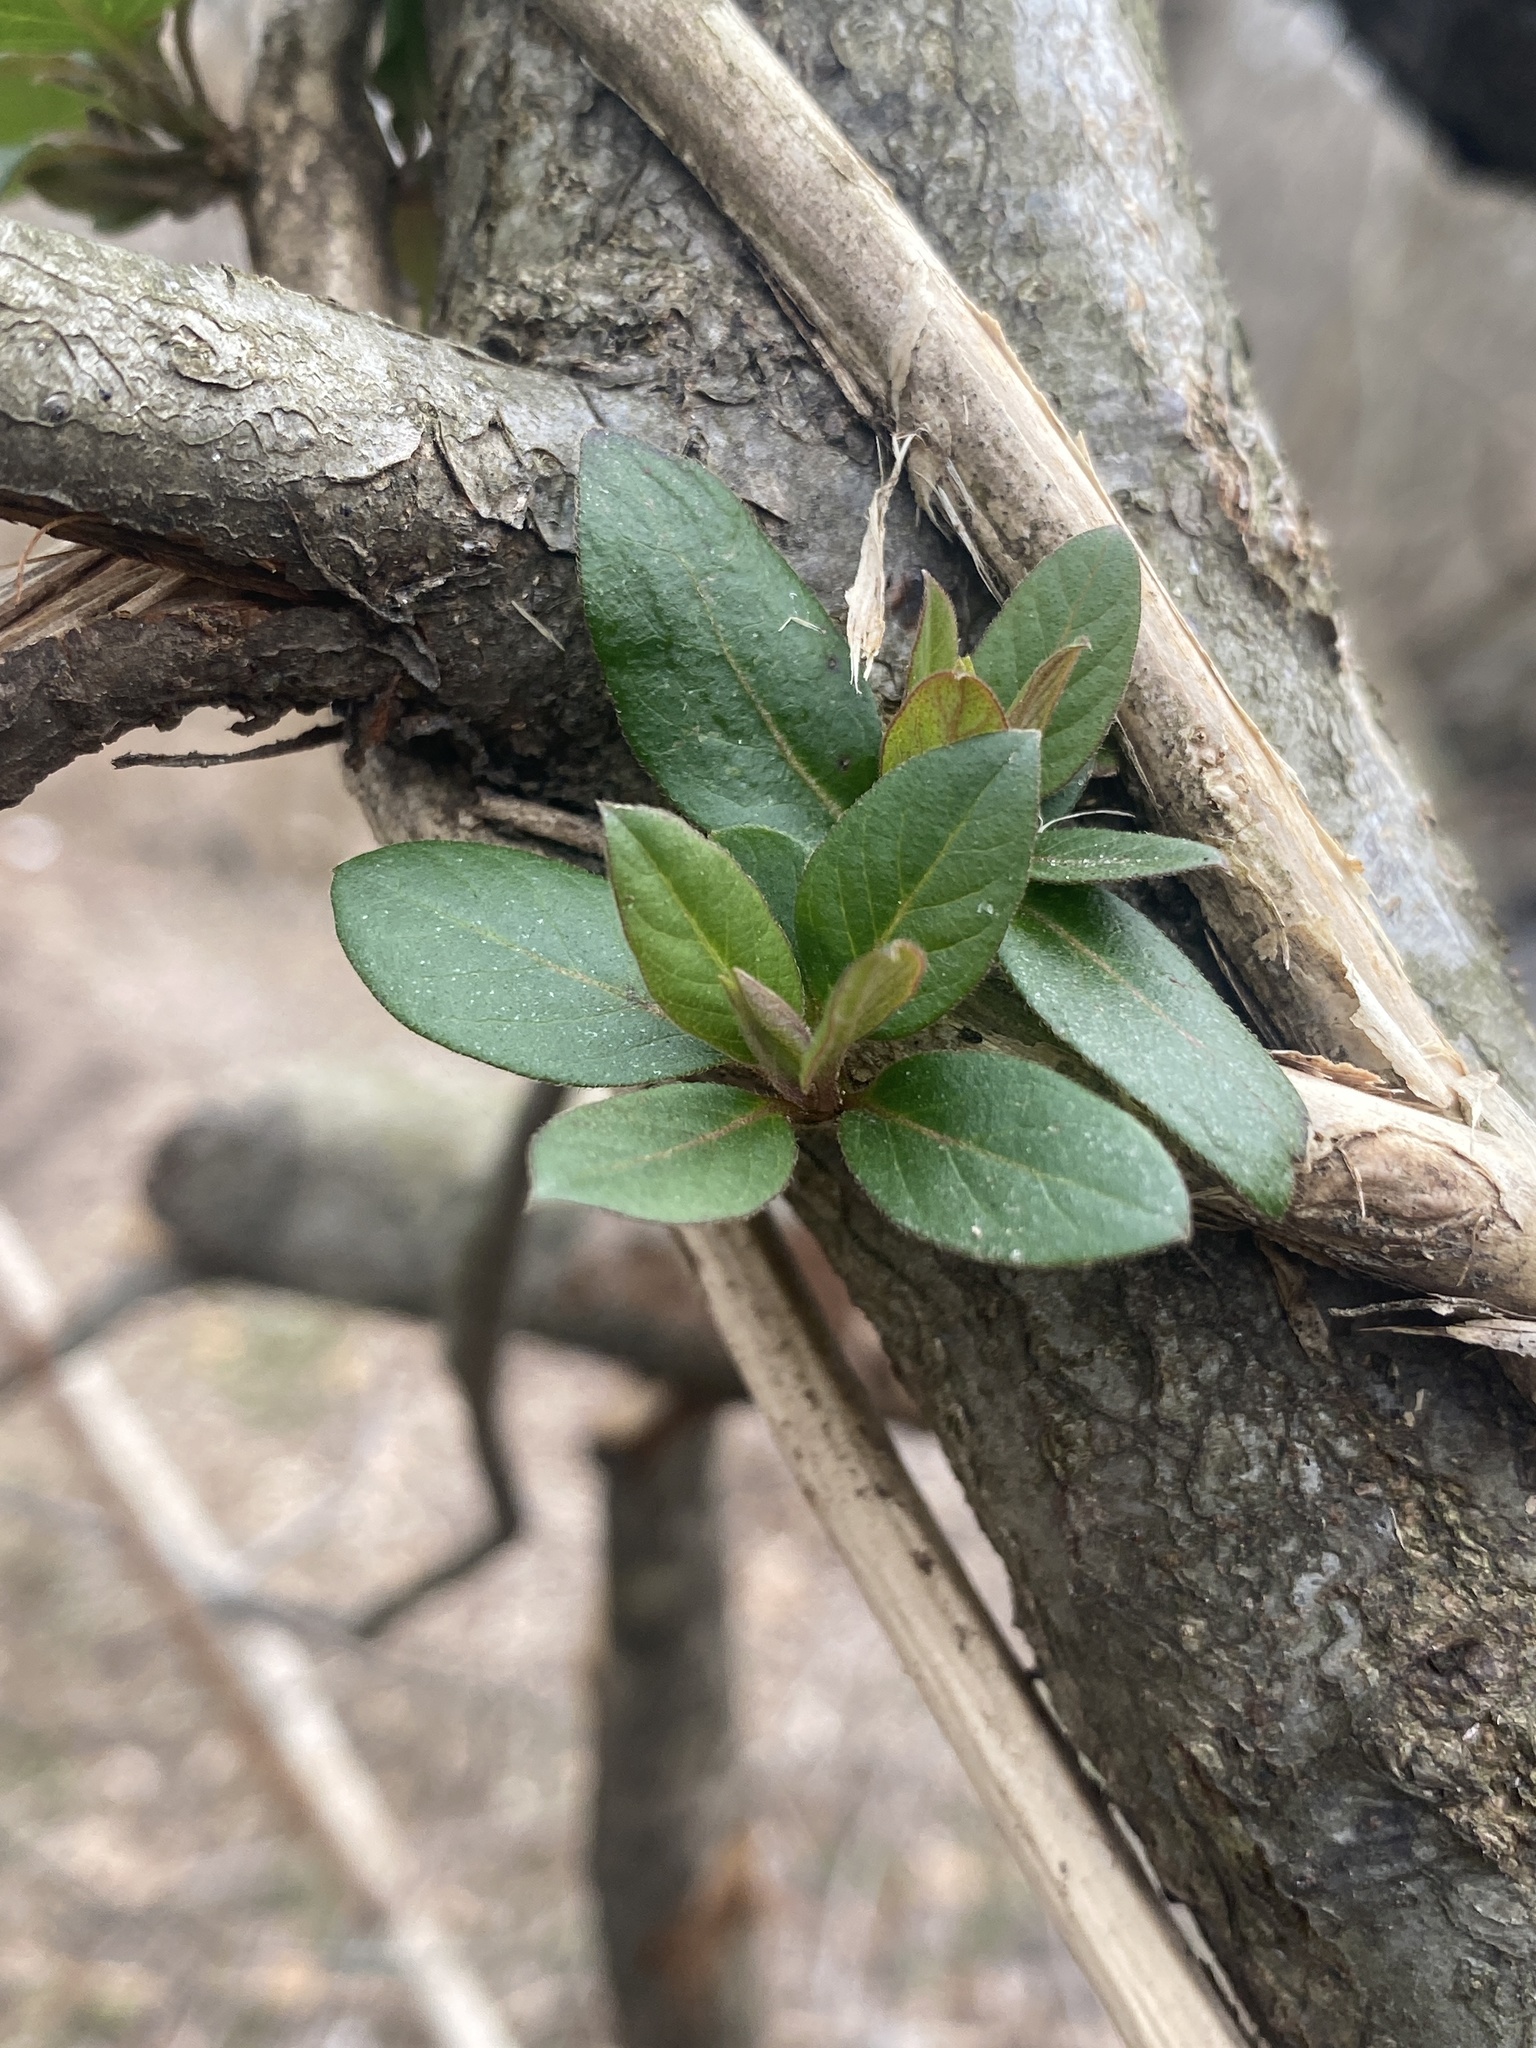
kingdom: Plantae
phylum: Tracheophyta
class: Magnoliopsida
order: Dipsacales
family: Caprifoliaceae
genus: Lonicera
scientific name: Lonicera japonica
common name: Japanese honeysuckle
